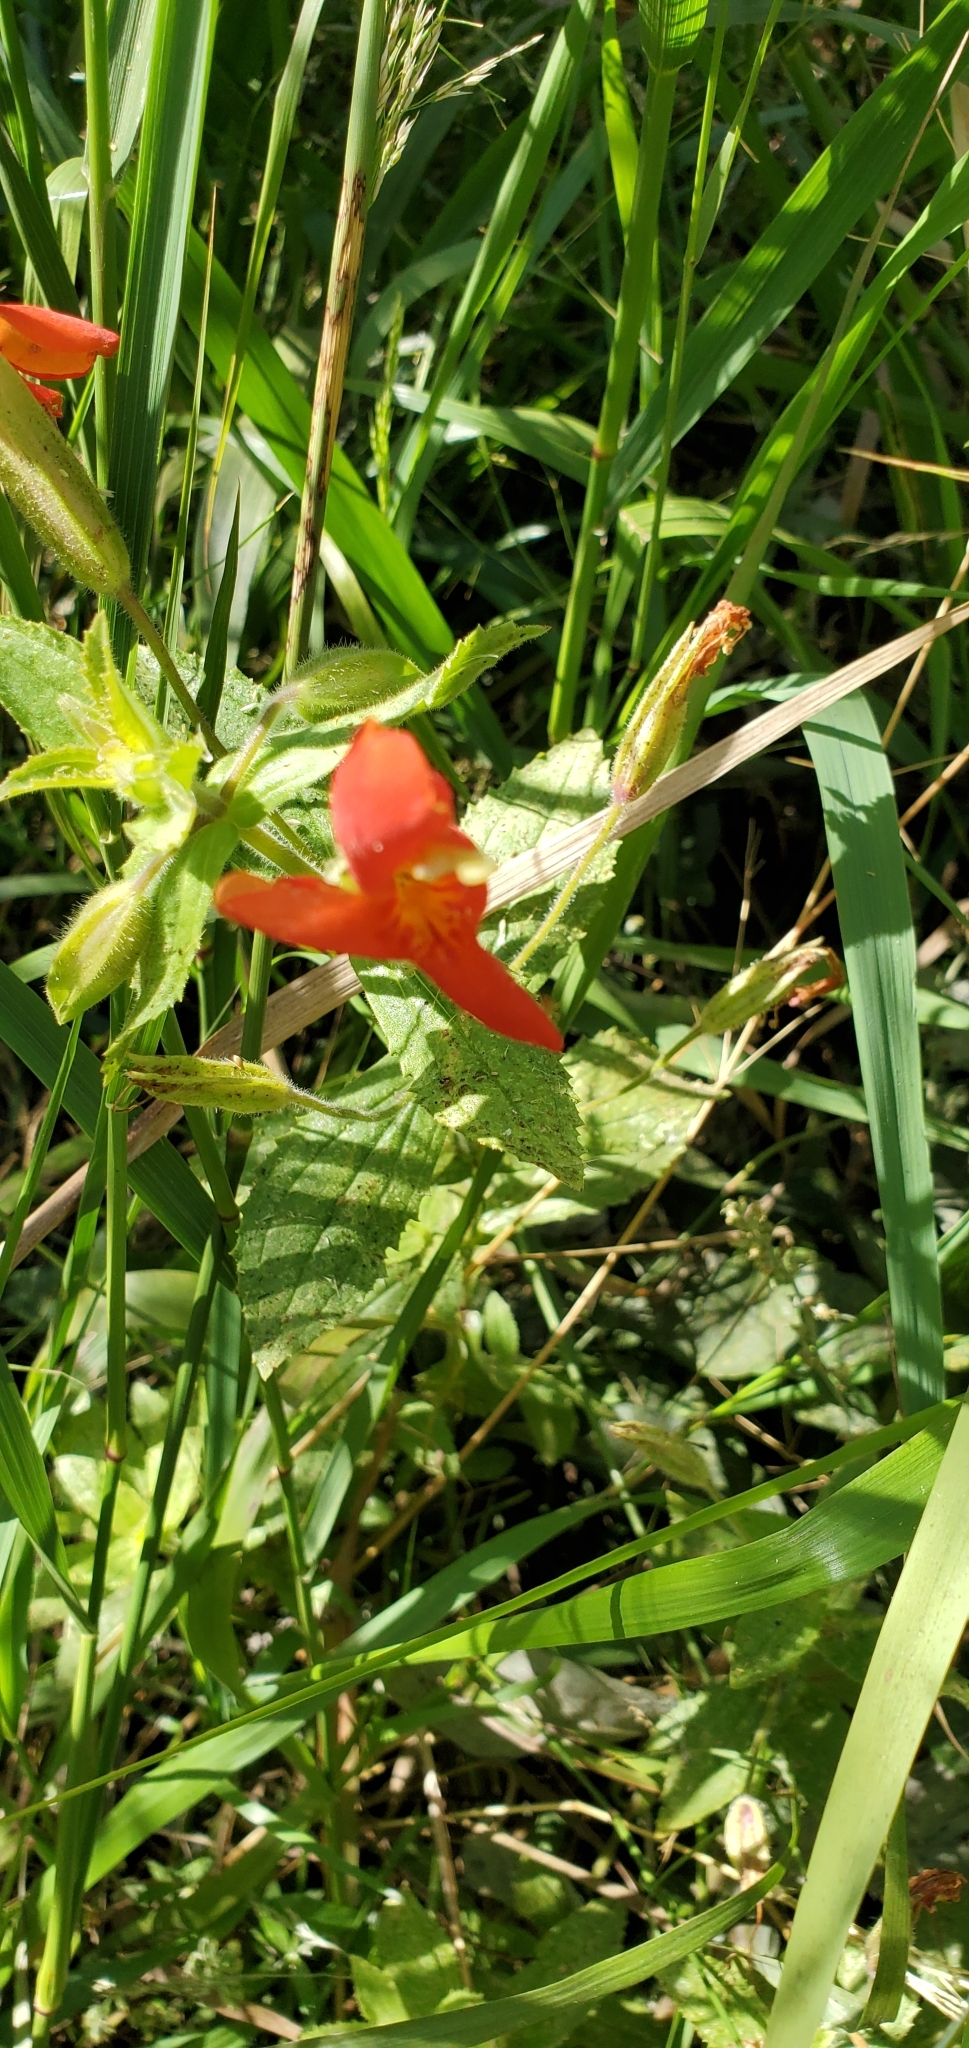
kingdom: Plantae
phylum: Tracheophyta
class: Magnoliopsida
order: Lamiales
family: Phrymaceae
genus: Erythranthe
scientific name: Erythranthe cardinalis
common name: Scarlet monkey-flower
